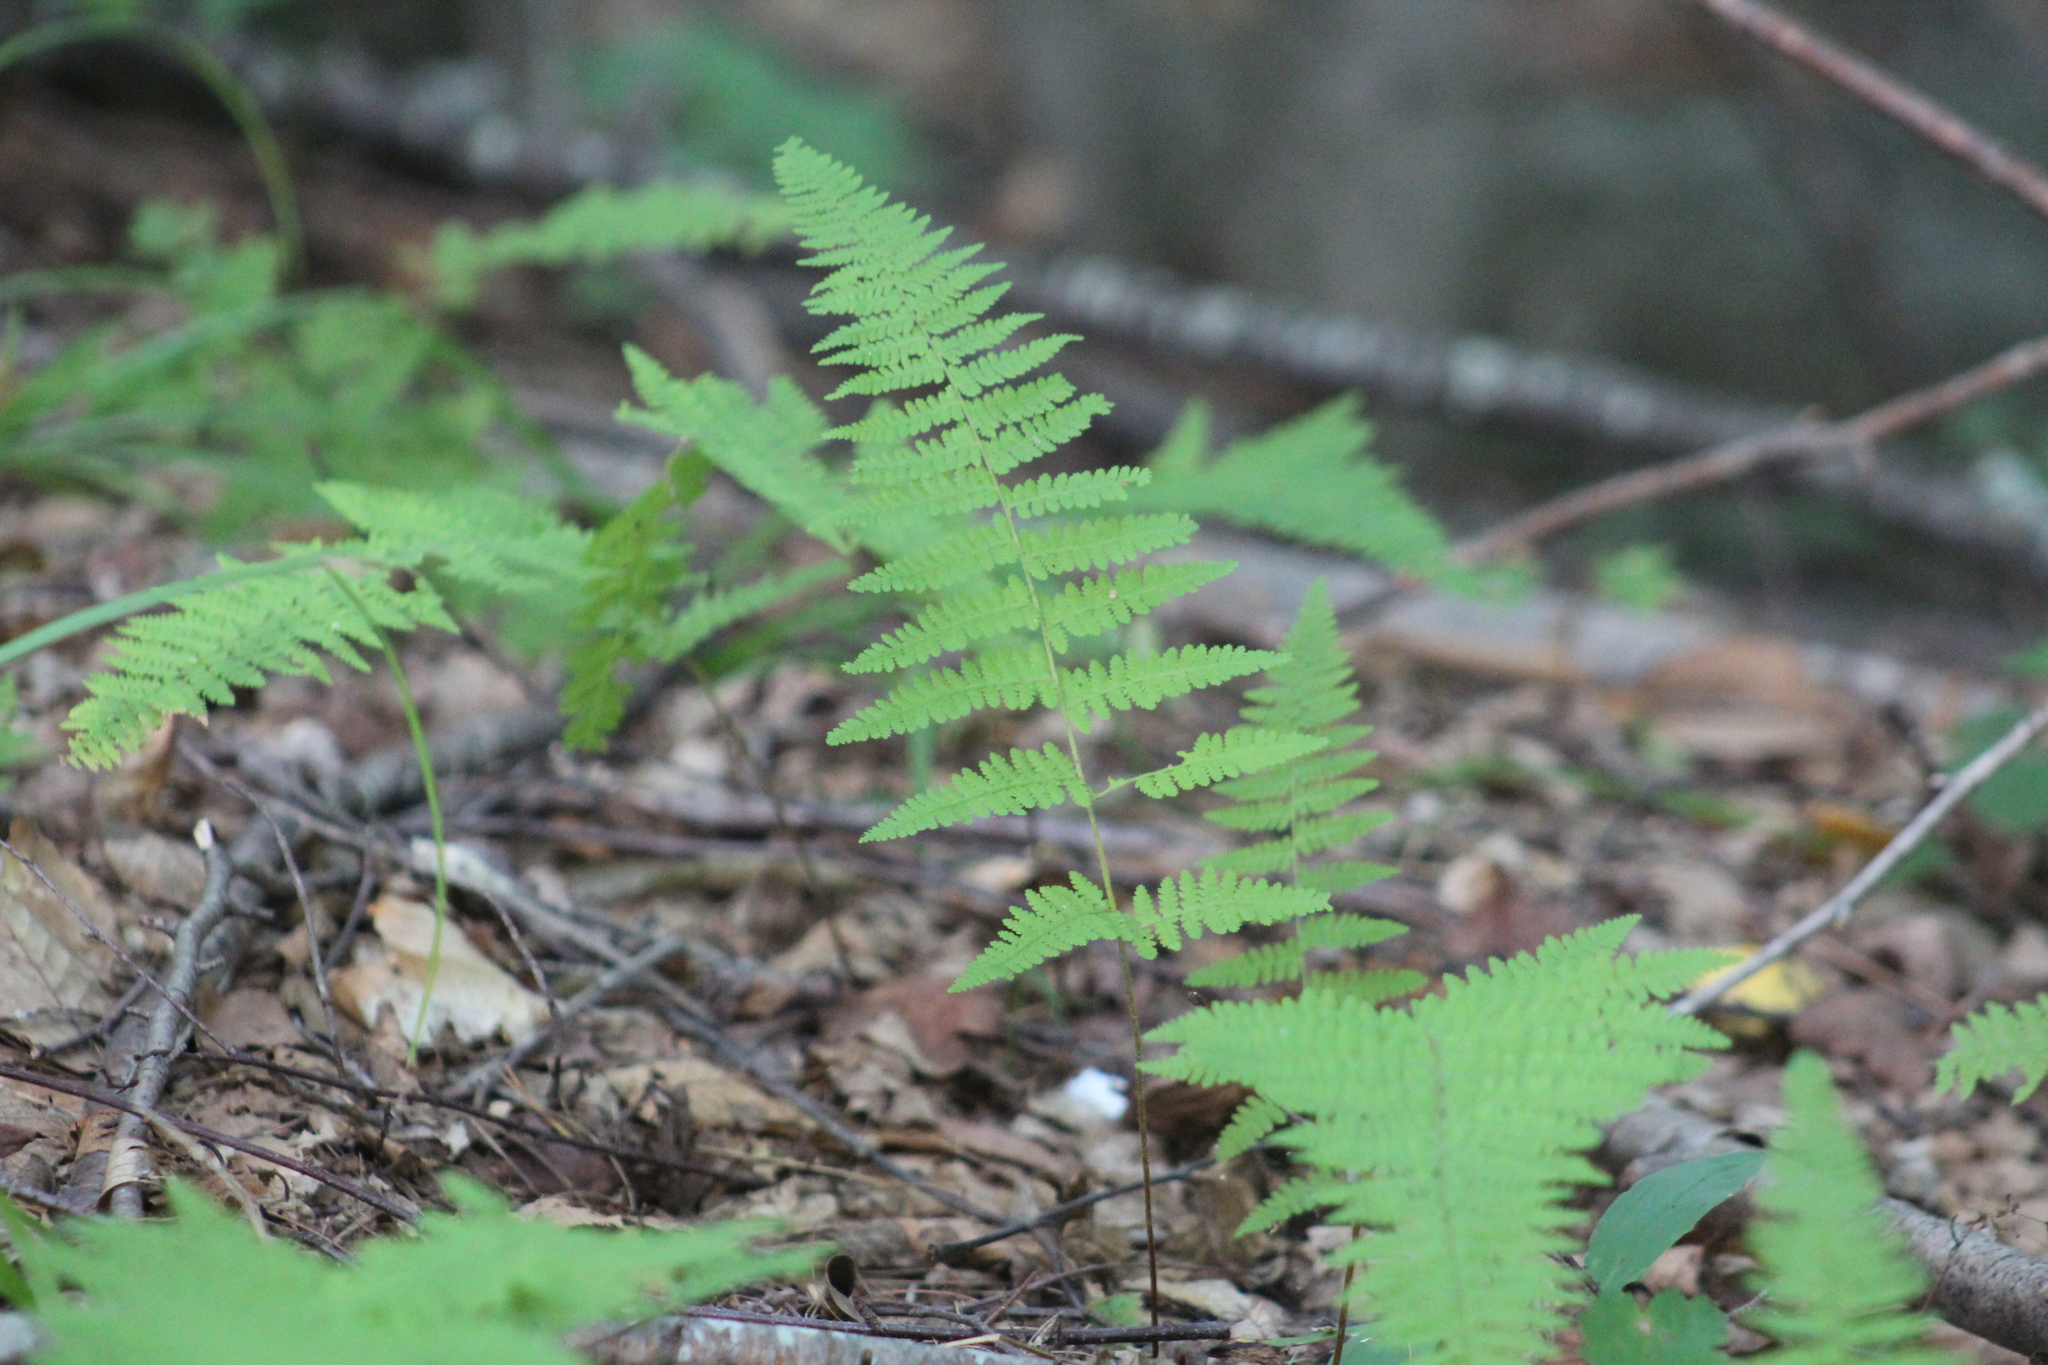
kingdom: Plantae
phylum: Tracheophyta
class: Polypodiopsida
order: Polypodiales
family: Dennstaedtiaceae
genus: Sitobolium
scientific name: Sitobolium punctilobum
